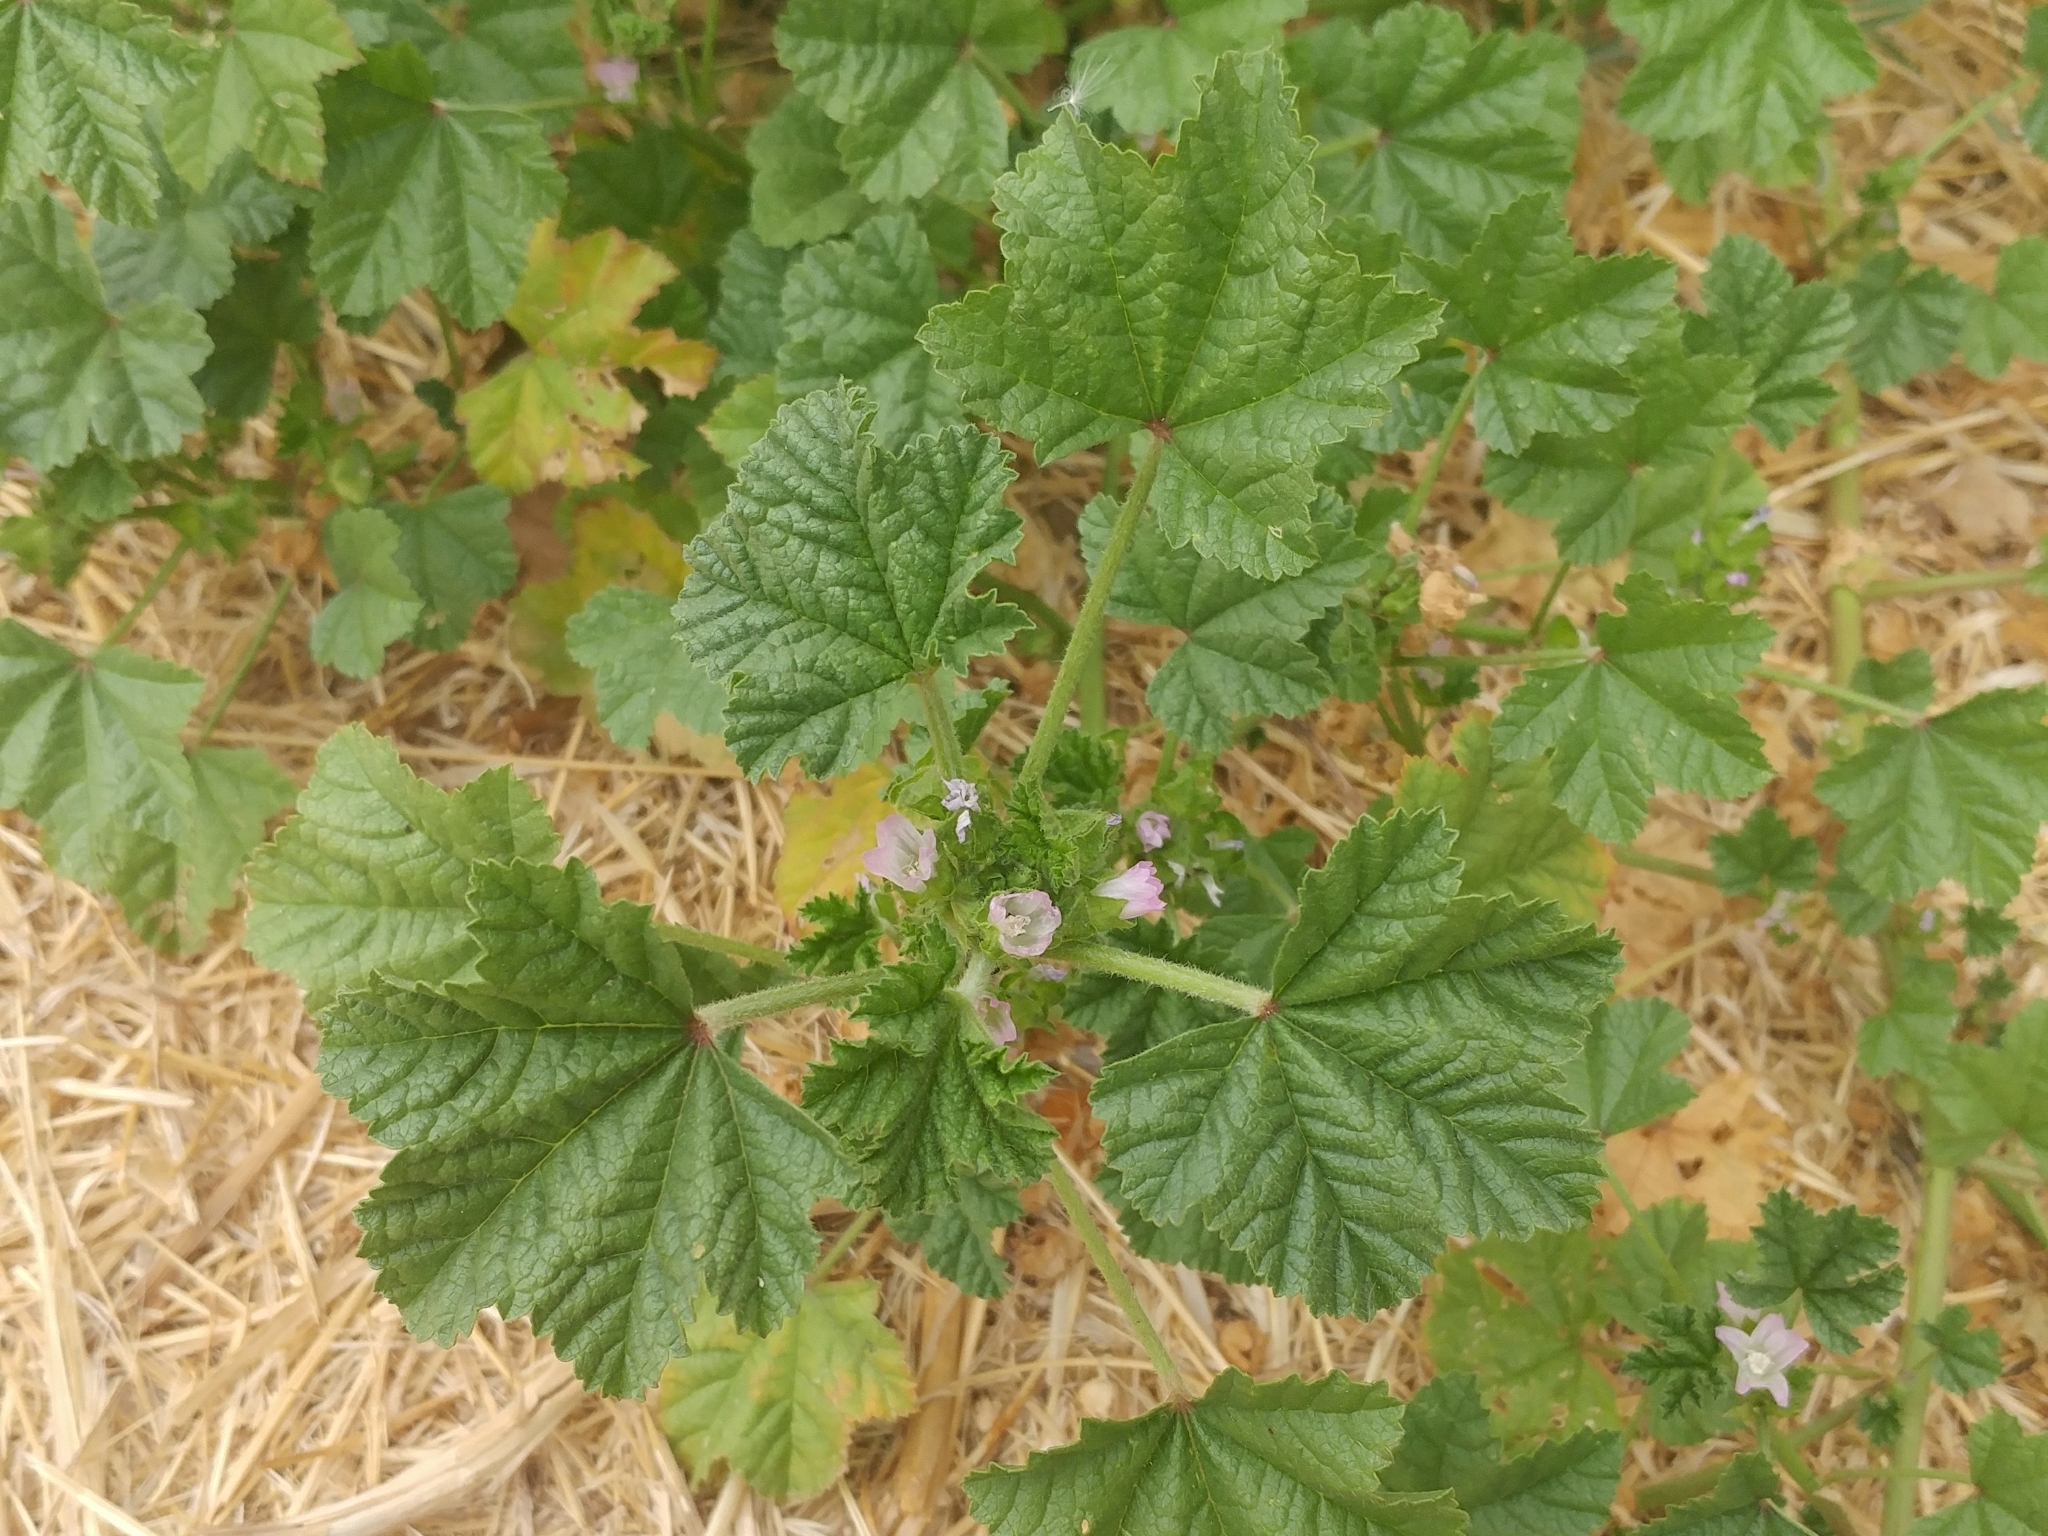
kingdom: Plantae
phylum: Tracheophyta
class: Magnoliopsida
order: Malvales
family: Malvaceae
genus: Malva
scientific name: Malva parviflora
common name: Least mallow
